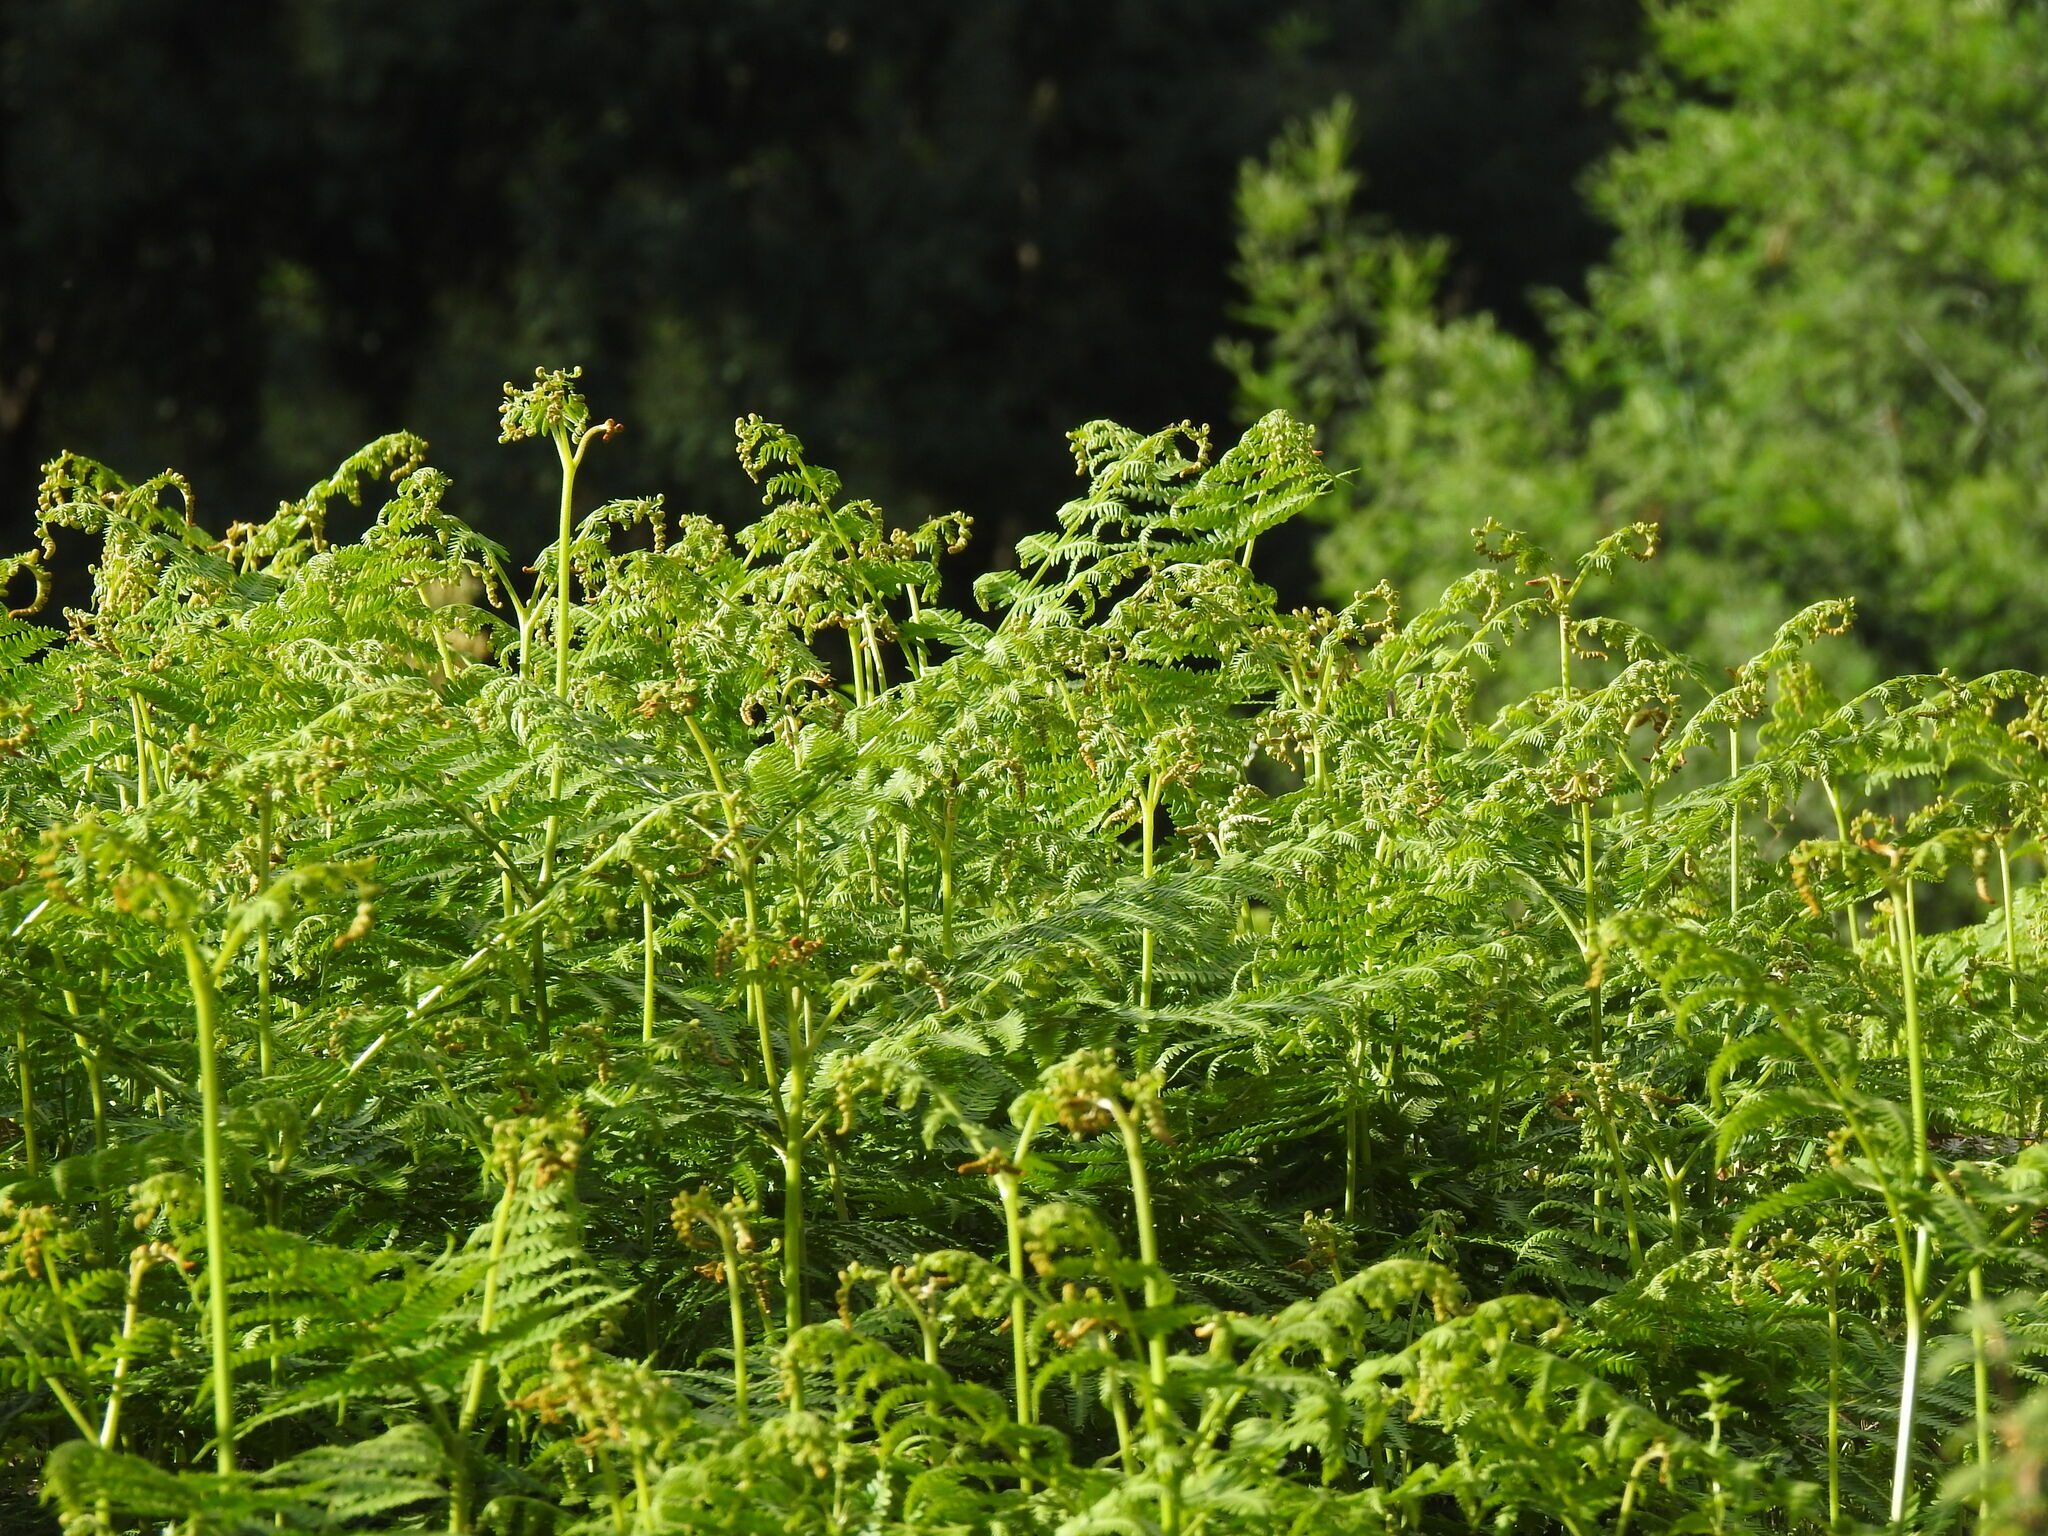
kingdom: Plantae
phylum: Tracheophyta
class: Polypodiopsida
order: Polypodiales
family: Dennstaedtiaceae
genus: Pteridium
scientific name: Pteridium aquilinum
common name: Bracken
